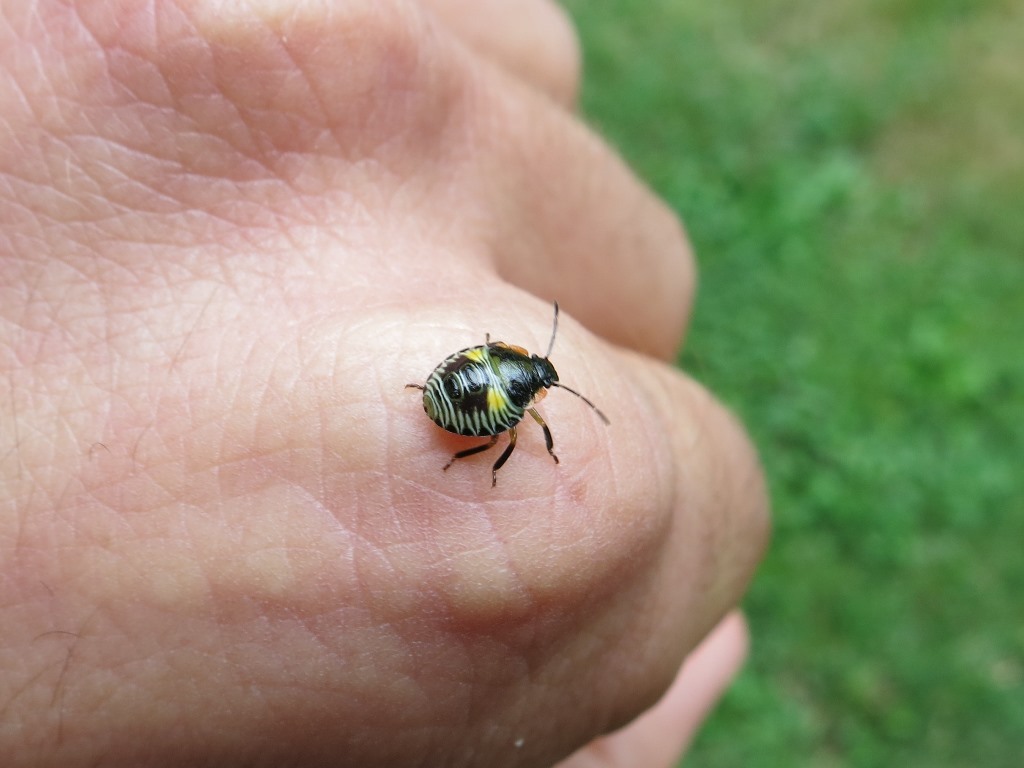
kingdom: Animalia
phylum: Arthropoda
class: Insecta
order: Hemiptera
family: Pentatomidae
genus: Chinavia
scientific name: Chinavia hilaris
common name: Green stink bug
